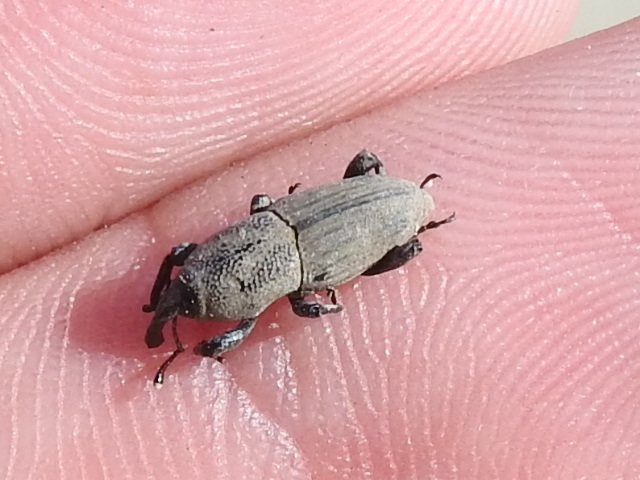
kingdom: Animalia
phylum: Arthropoda
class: Insecta
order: Coleoptera
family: Dryophthoridae
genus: Sphenophorus
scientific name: Sphenophorus coesifrons
